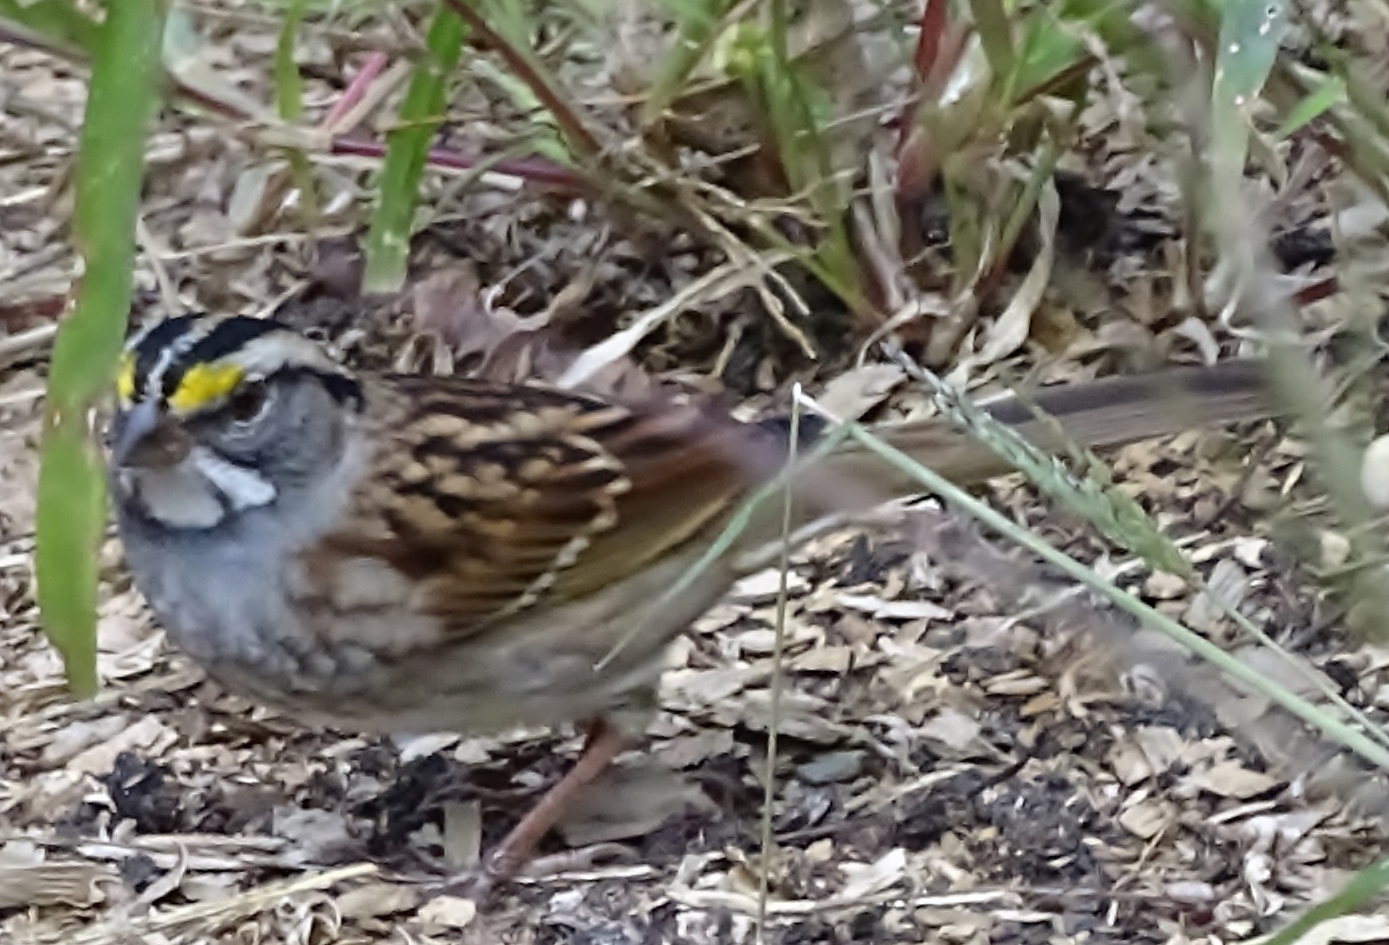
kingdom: Animalia
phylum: Chordata
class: Aves
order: Passeriformes
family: Passerellidae
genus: Zonotrichia
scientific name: Zonotrichia albicollis
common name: White-throated sparrow
